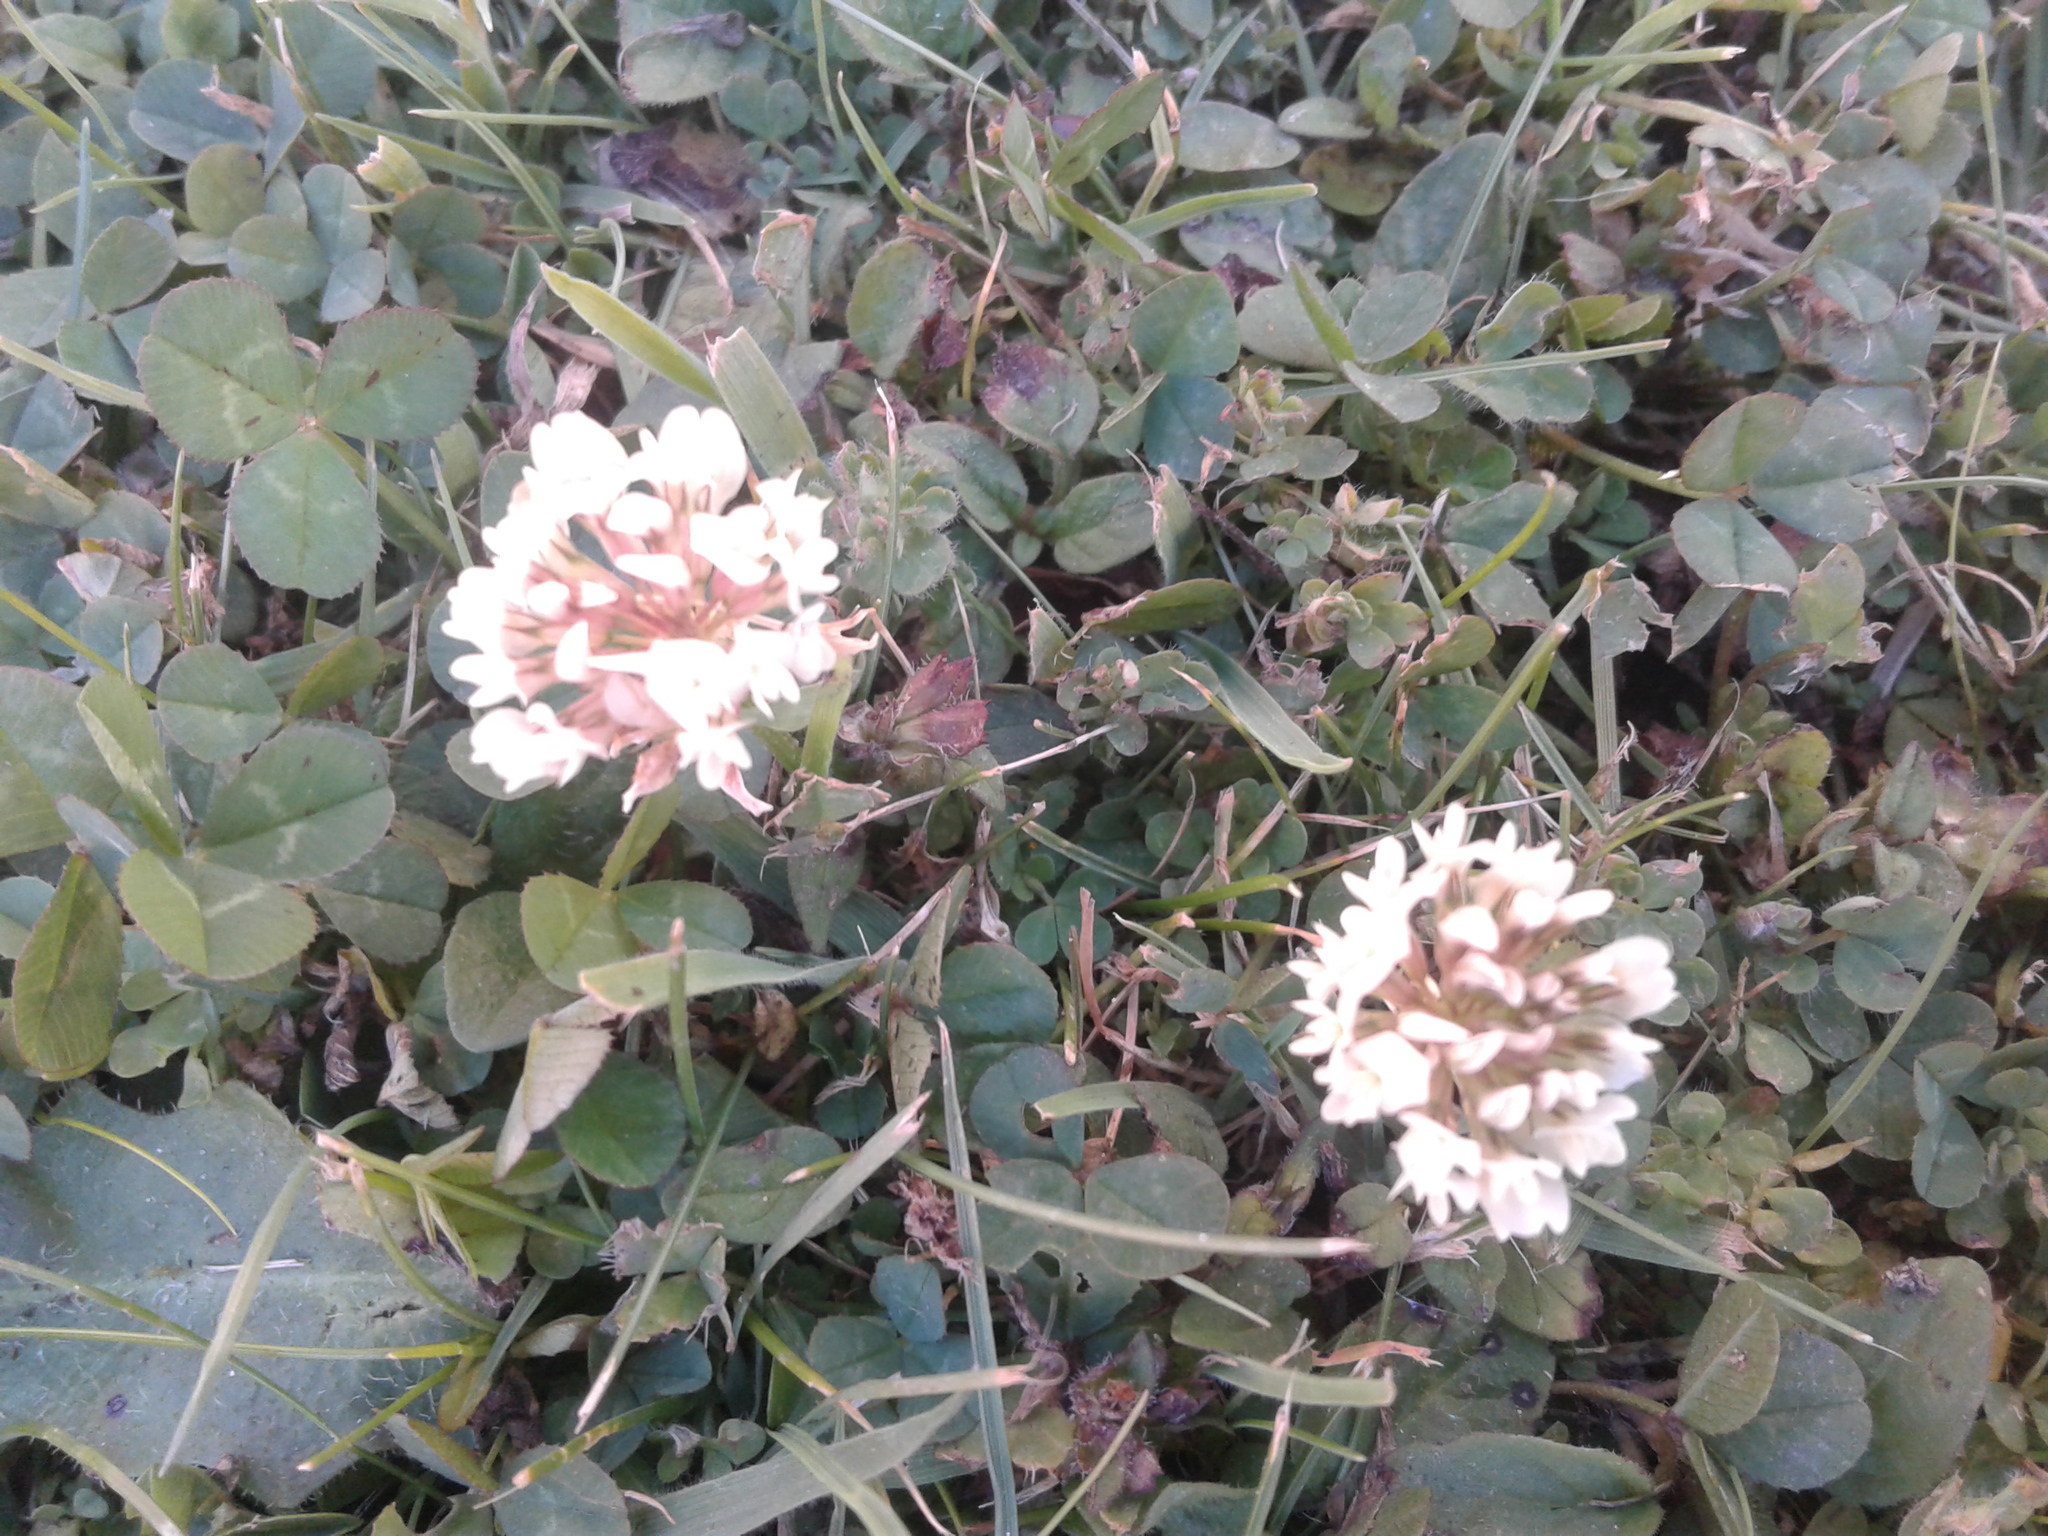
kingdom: Plantae
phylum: Tracheophyta
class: Magnoliopsida
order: Fabales
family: Fabaceae
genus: Trifolium
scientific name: Trifolium repens
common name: White clover
